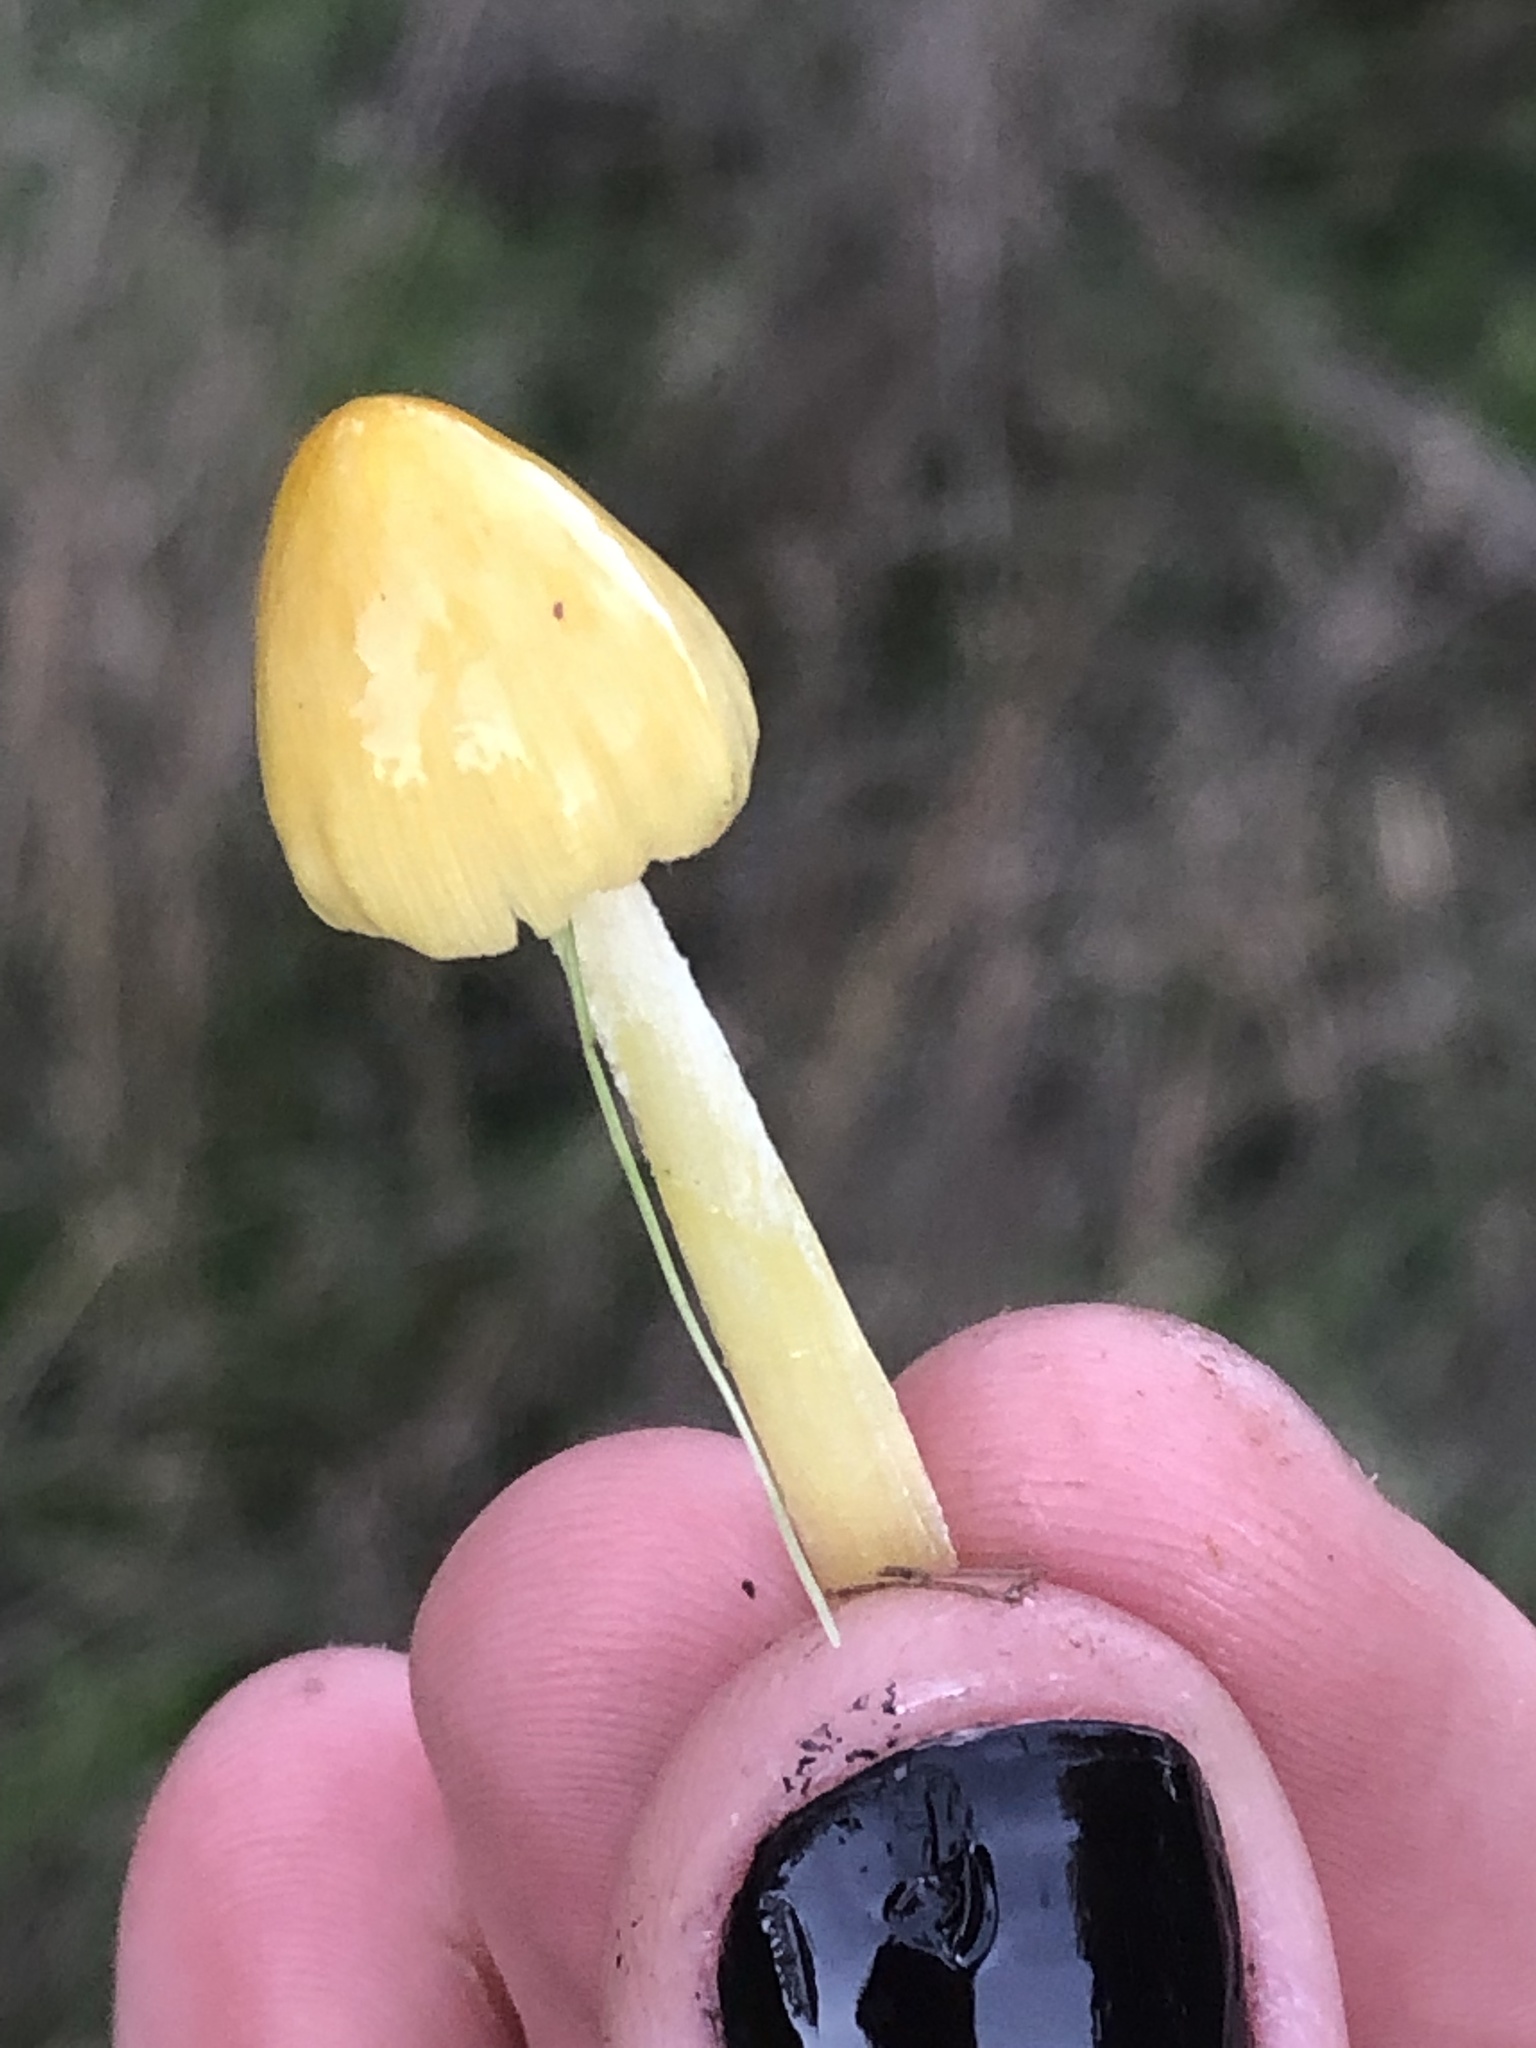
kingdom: Fungi
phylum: Basidiomycota
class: Agaricomycetes
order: Agaricales
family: Bolbitiaceae
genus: Bolbitius
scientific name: Bolbitius titubans
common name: Yellow fieldcap
